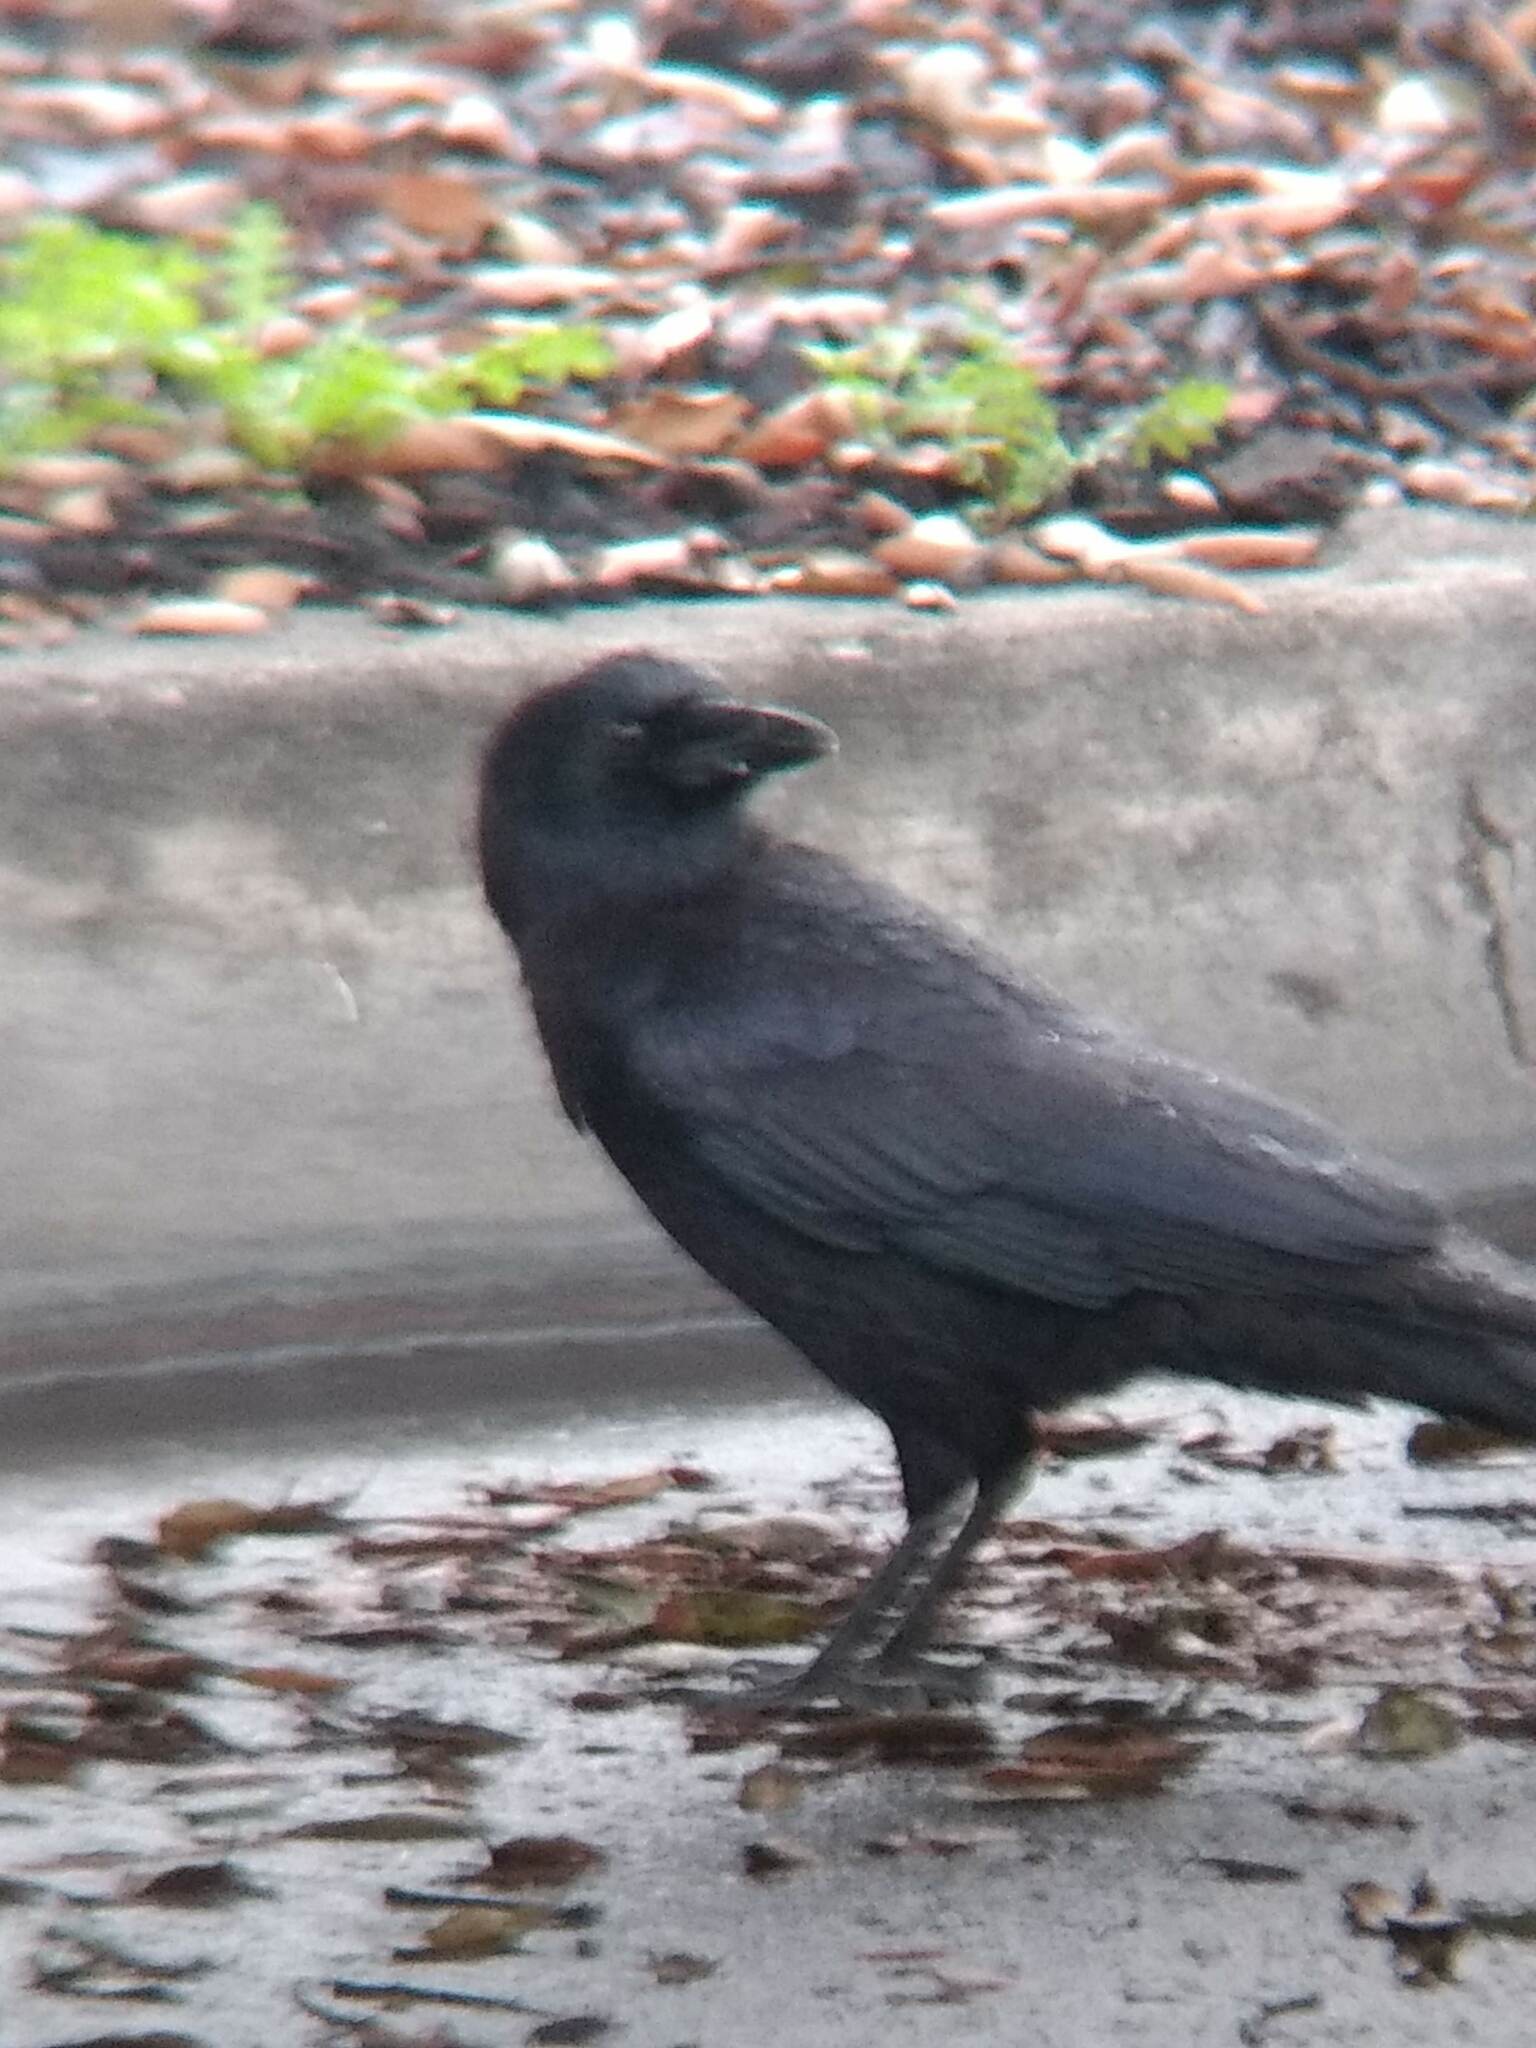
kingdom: Animalia
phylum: Chordata
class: Aves
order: Passeriformes
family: Corvidae
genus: Corvus
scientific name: Corvus brachyrhynchos
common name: American crow
